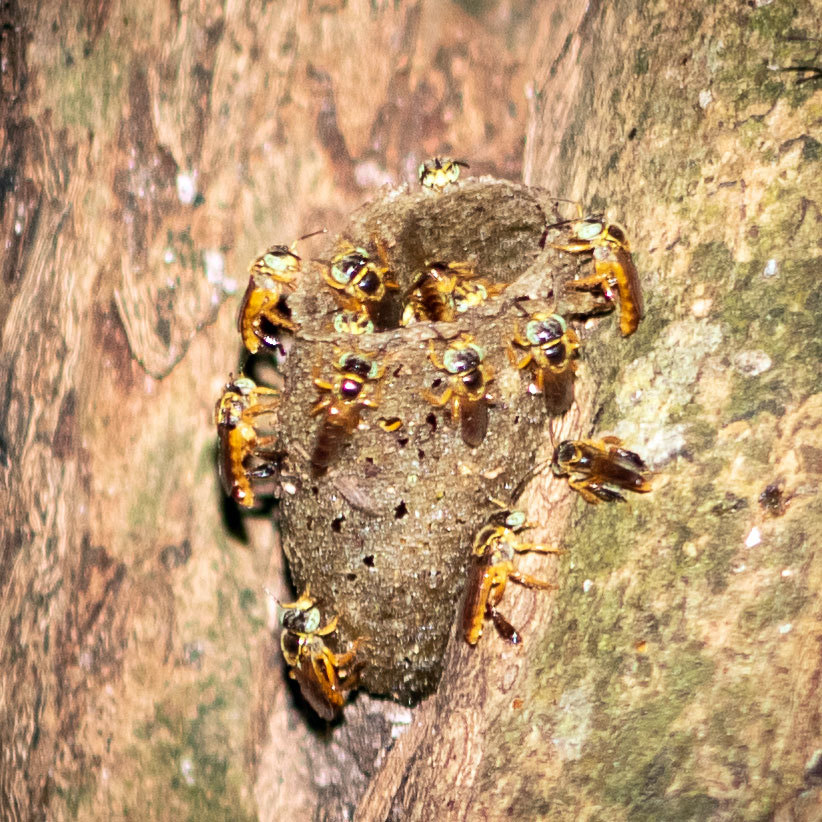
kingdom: Animalia
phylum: Arthropoda
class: Insecta
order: Hymenoptera
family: Apidae
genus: Tetragonisca
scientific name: Tetragonisca angustula
